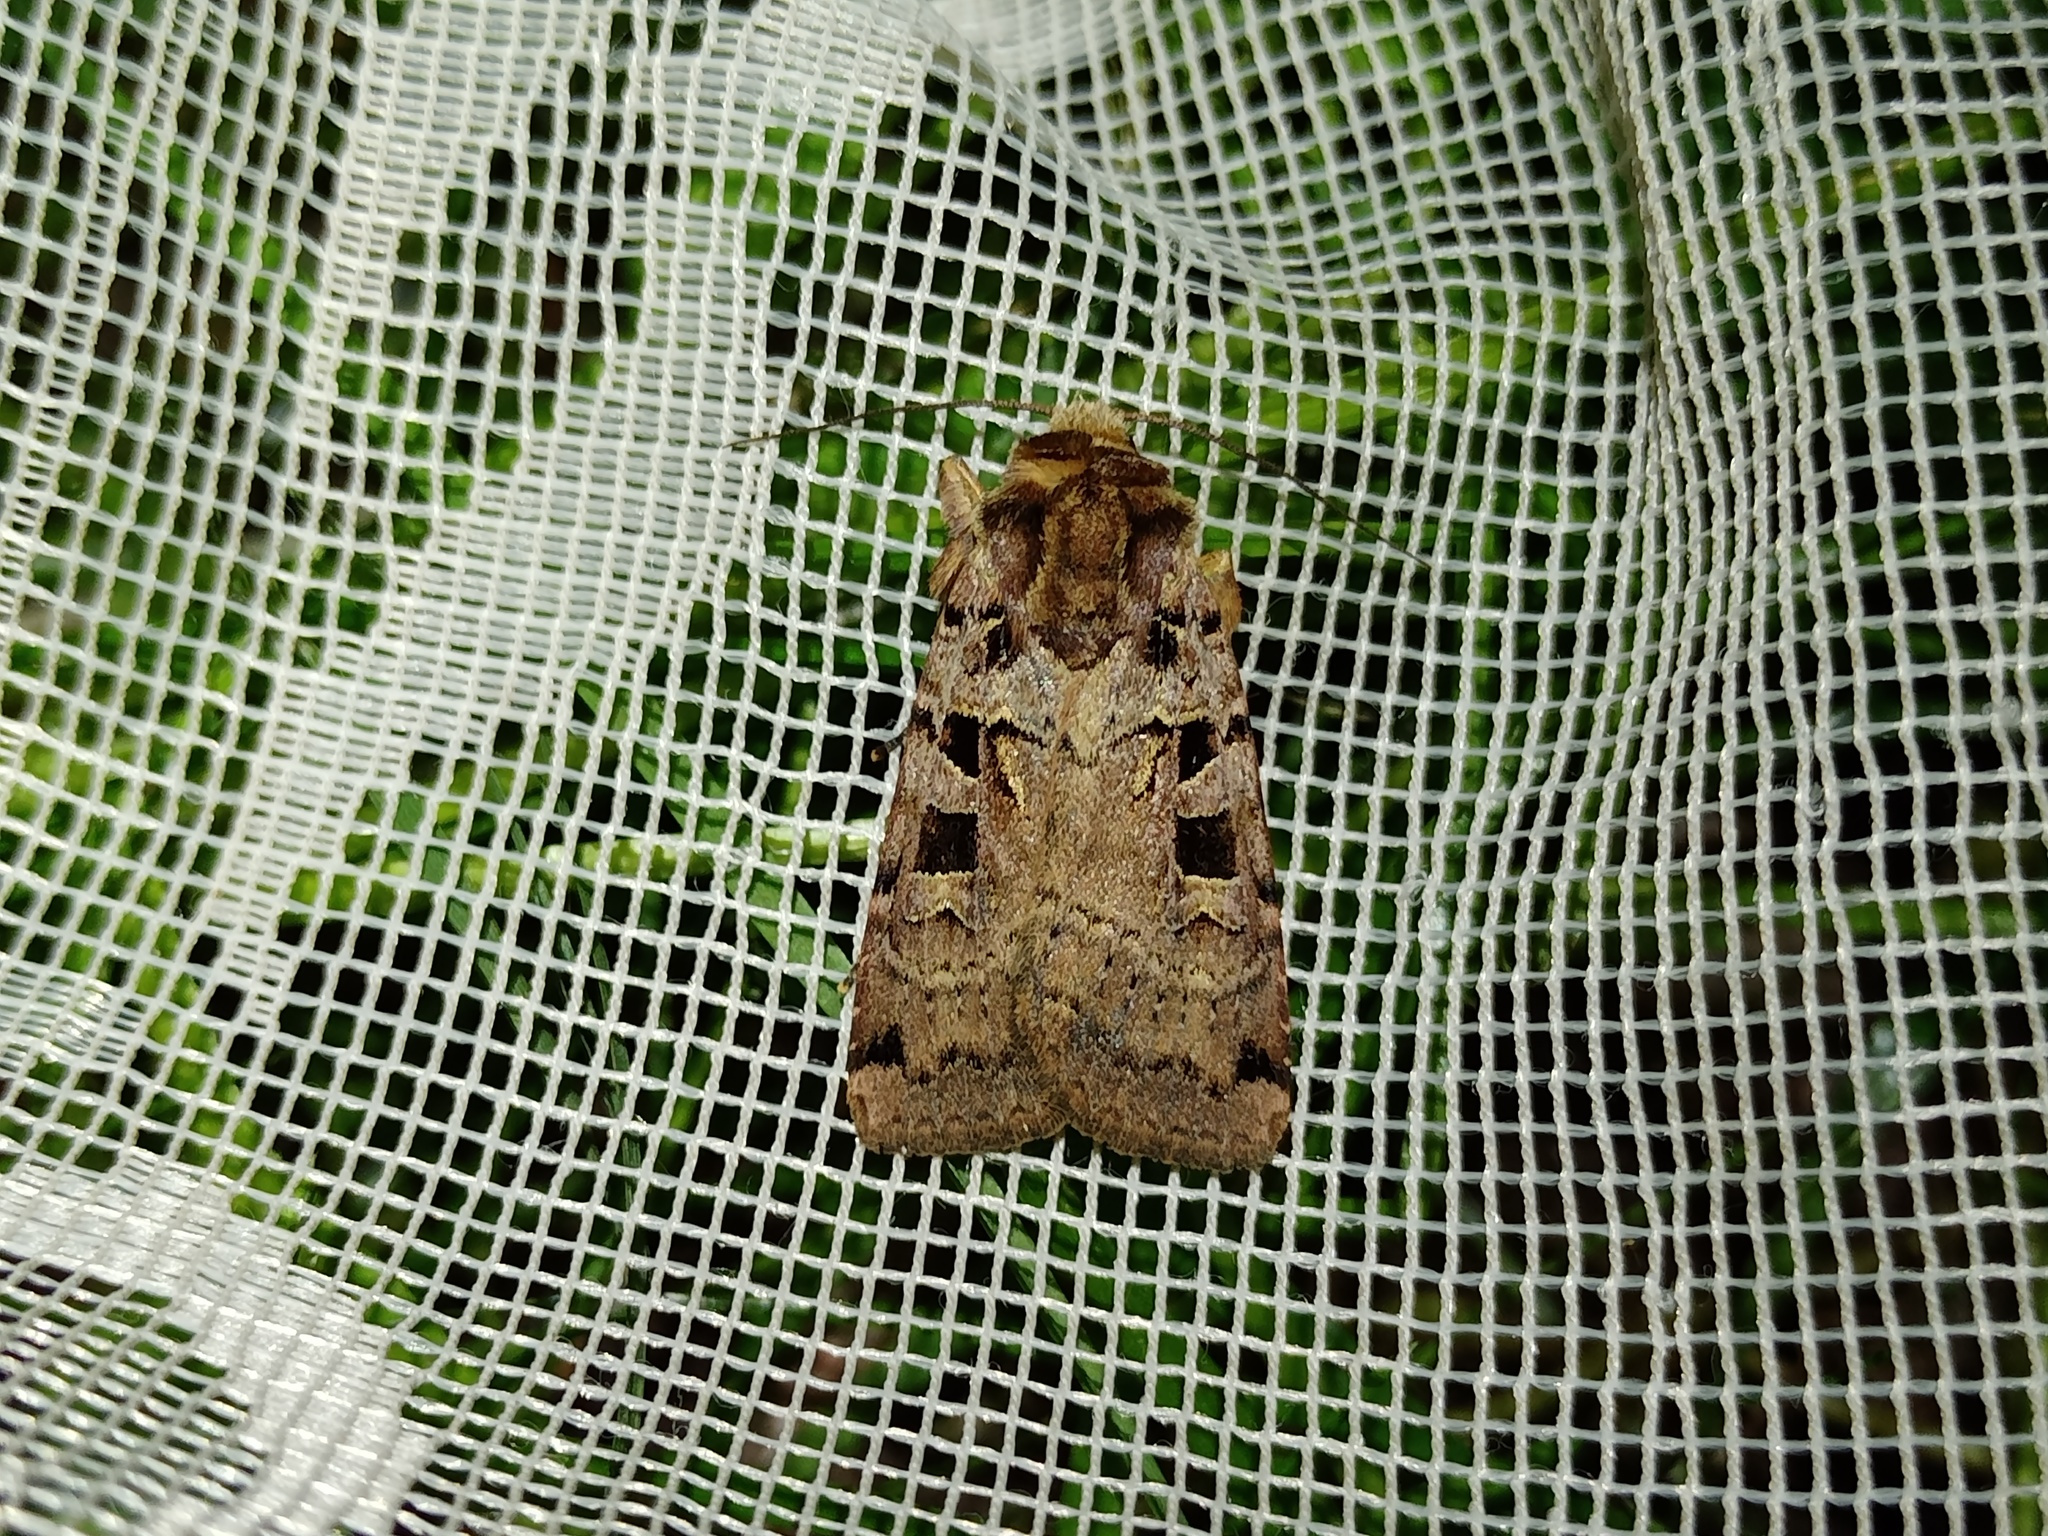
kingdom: Animalia
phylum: Arthropoda
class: Insecta
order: Lepidoptera
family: Noctuidae
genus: Xestia
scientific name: Xestia triangulum
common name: Double square-spot
